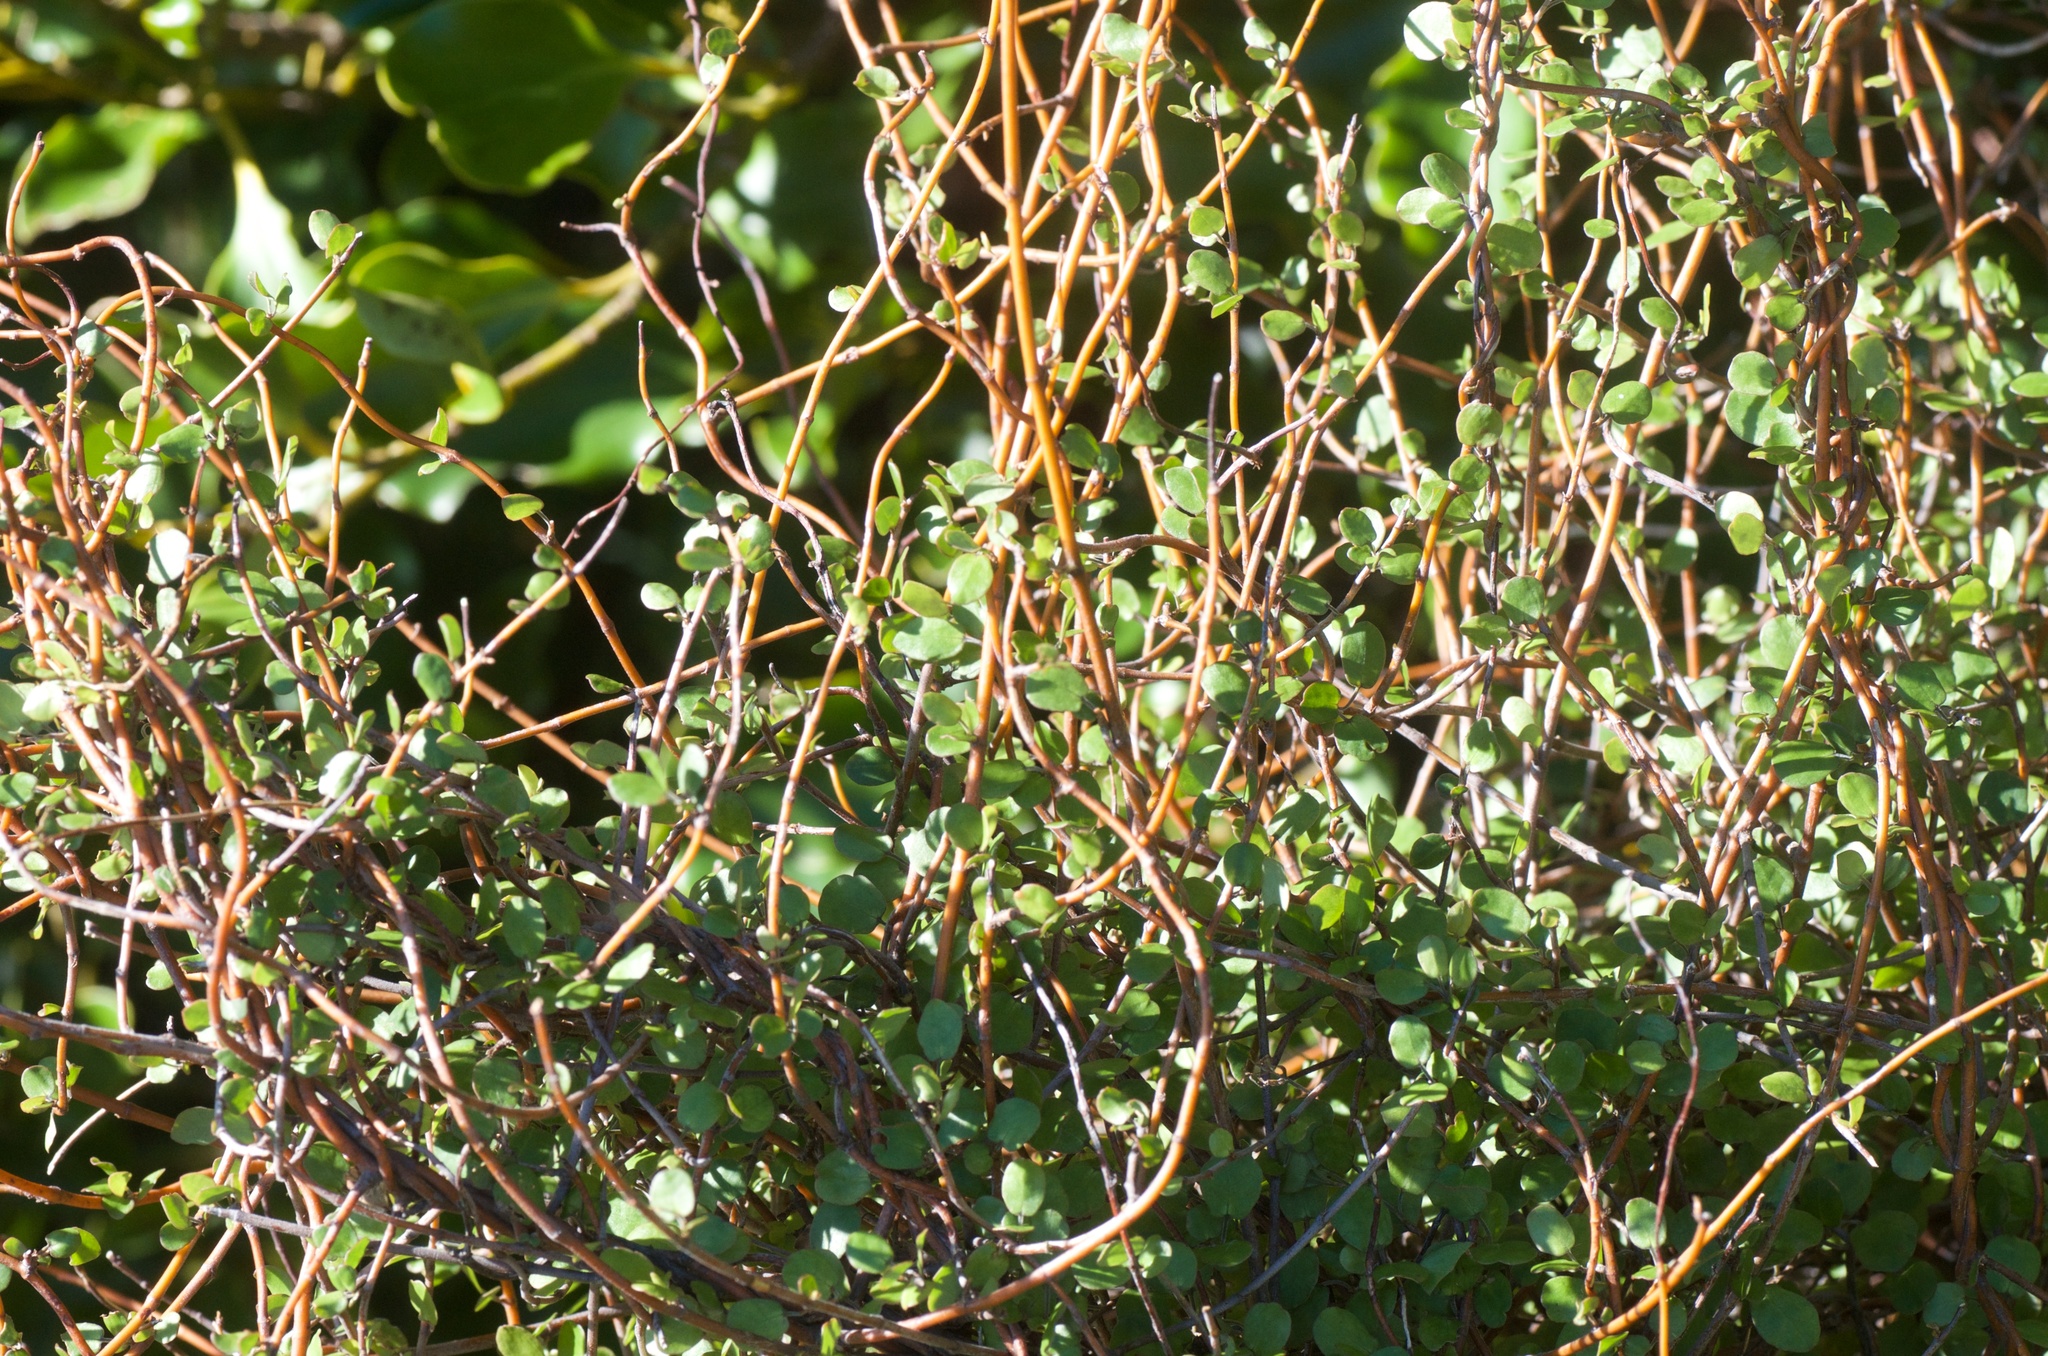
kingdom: Plantae
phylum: Tracheophyta
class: Magnoliopsida
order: Caryophyllales
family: Polygonaceae
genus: Muehlenbeckia
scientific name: Muehlenbeckia complexa
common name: Wireplant
